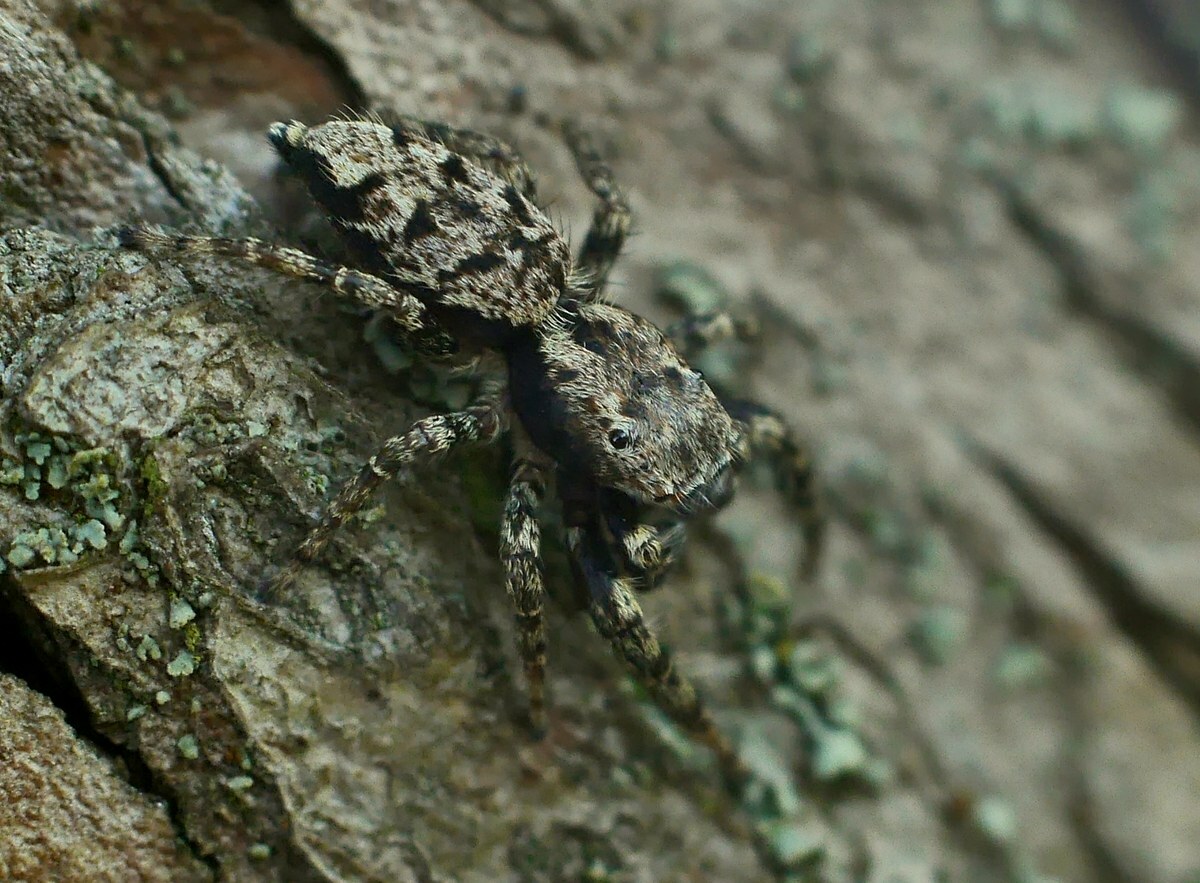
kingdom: Animalia
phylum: Arthropoda
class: Arachnida
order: Araneae
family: Salticidae
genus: Marpissa
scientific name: Marpissa muscosa
